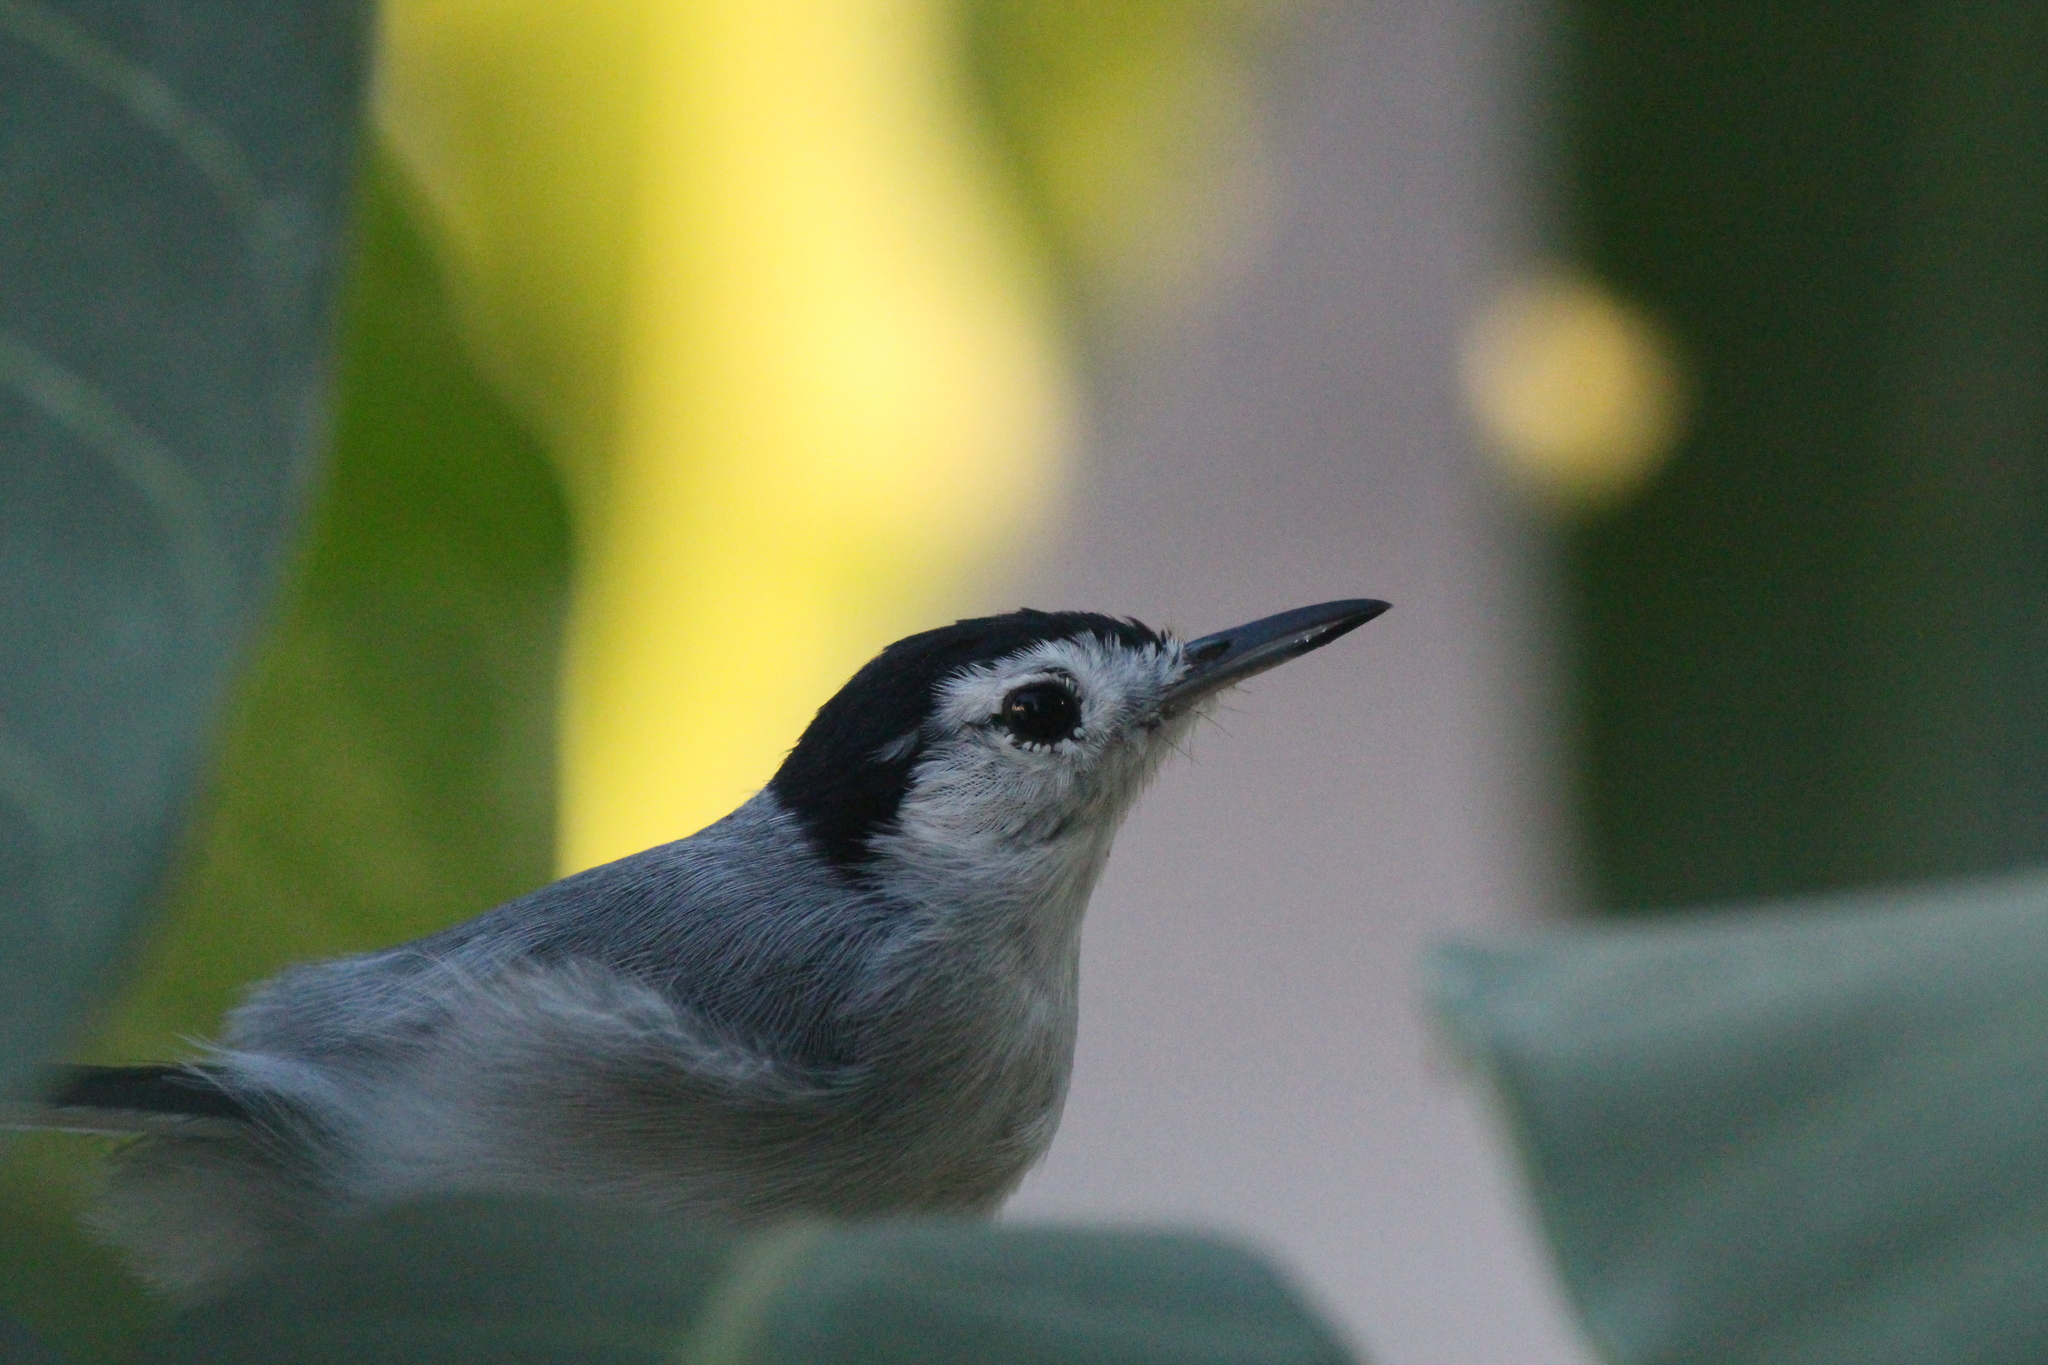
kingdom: Animalia
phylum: Chordata
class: Aves
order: Passeriformes
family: Polioptilidae
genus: Polioptila
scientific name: Polioptila plumbea
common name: Tropical gnatcatcher
